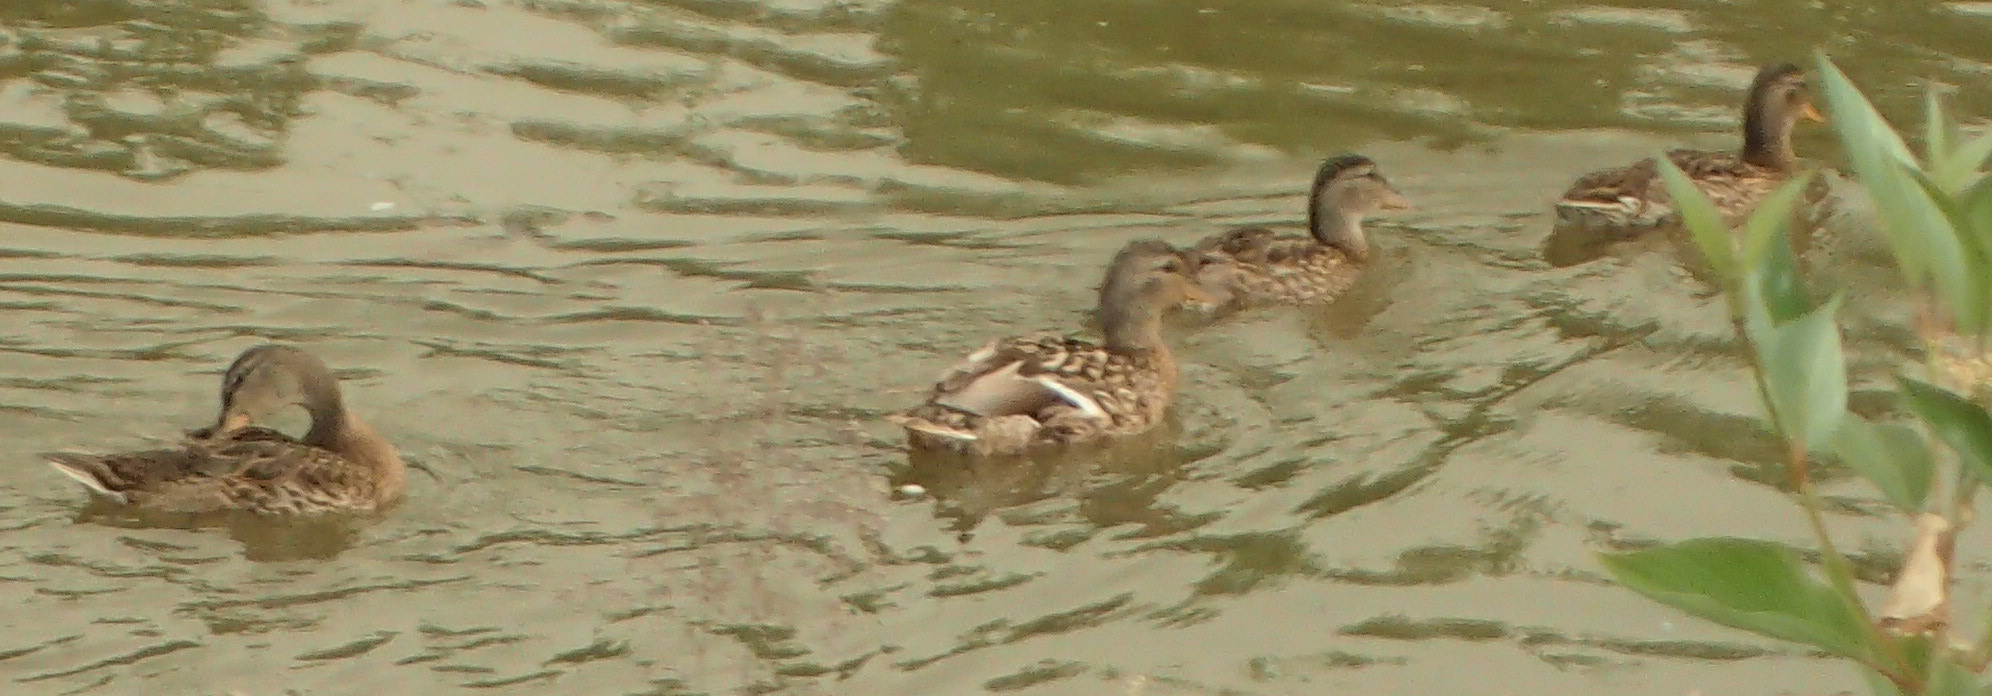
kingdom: Animalia
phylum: Chordata
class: Aves
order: Anseriformes
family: Anatidae
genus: Anas
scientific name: Anas platyrhynchos
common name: Mallard
